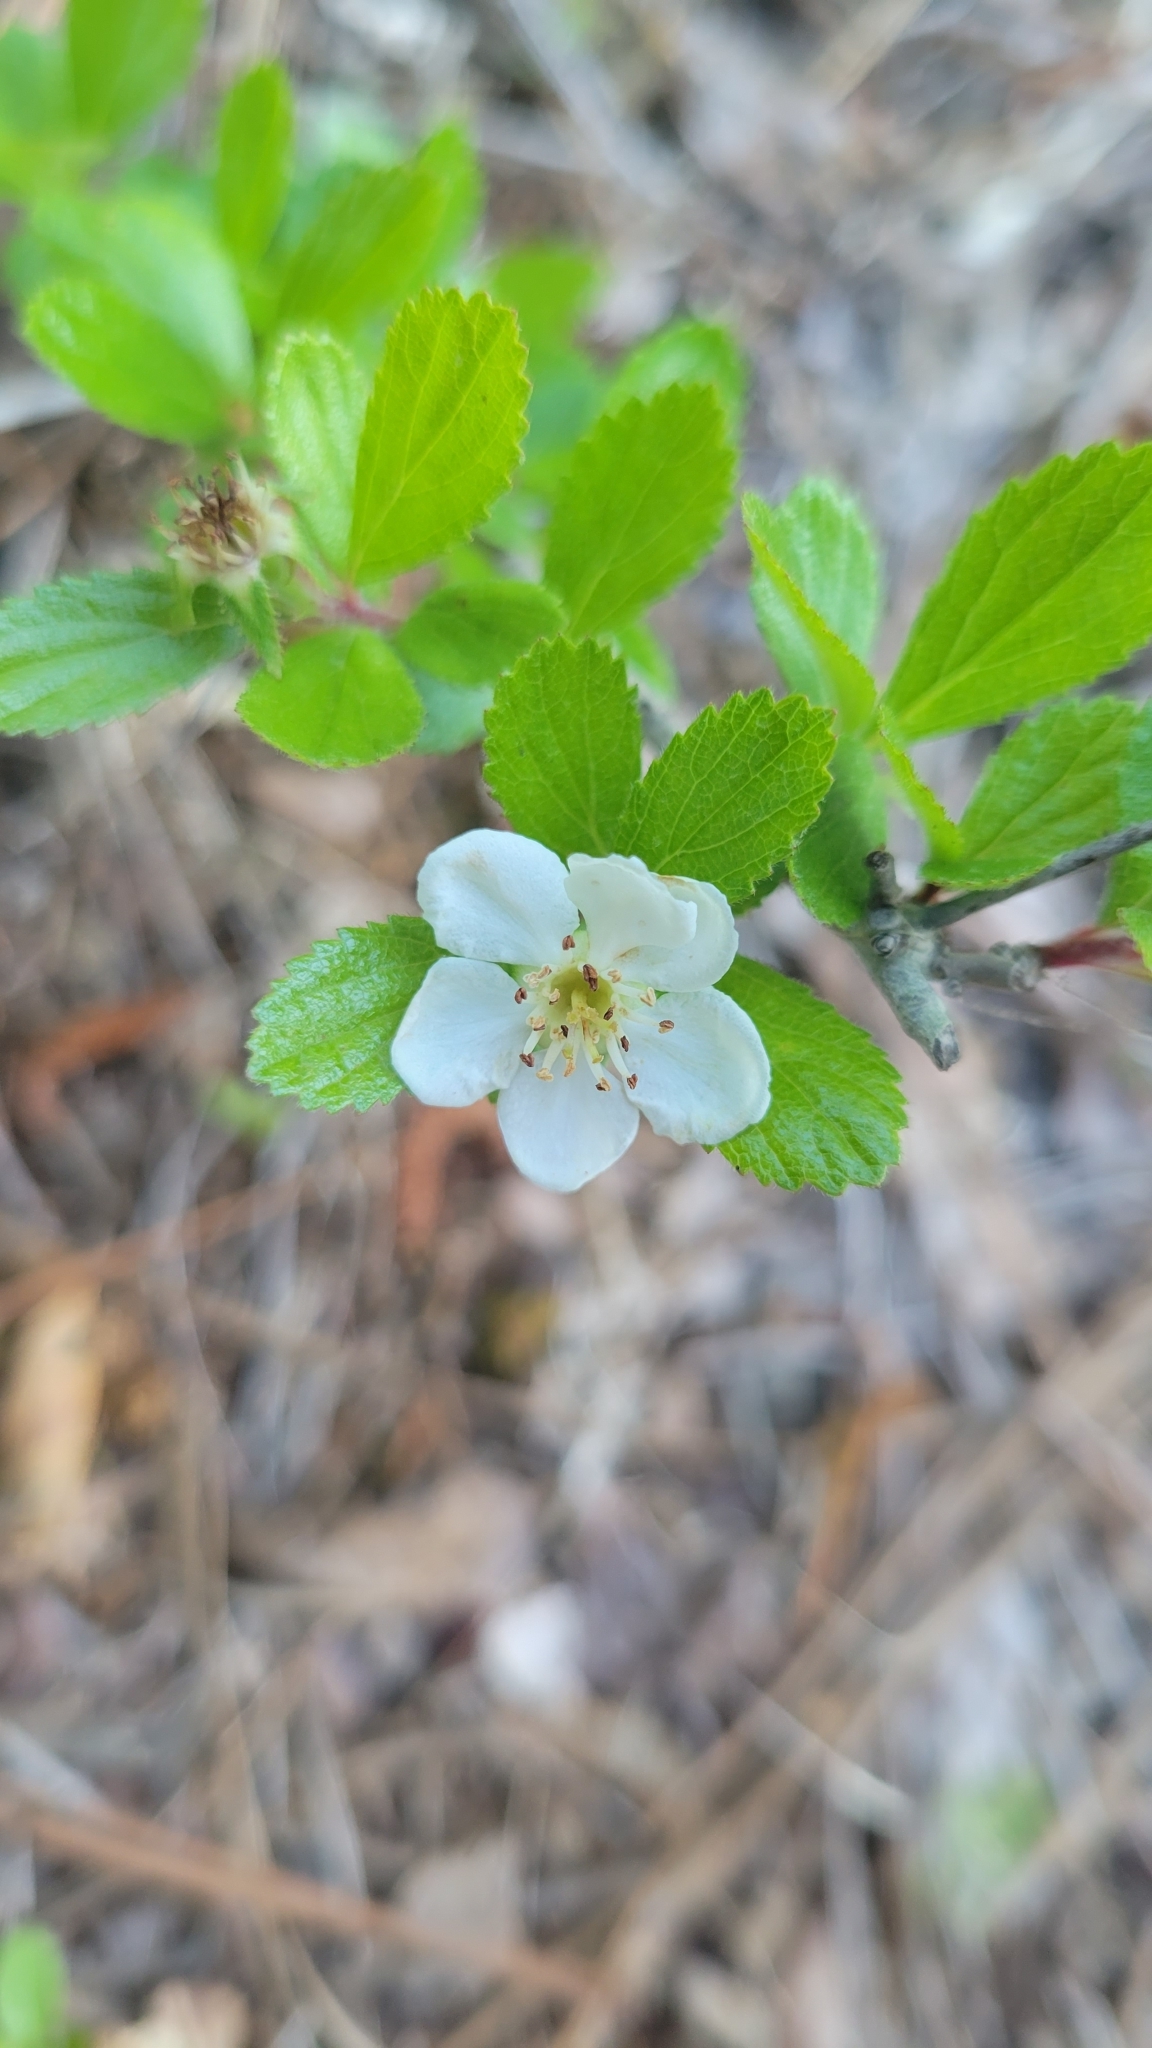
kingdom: Plantae
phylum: Tracheophyta
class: Magnoliopsida
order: Rosales
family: Rosaceae
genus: Crataegus
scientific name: Crataegus uniflora
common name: One-flower hawthorn
